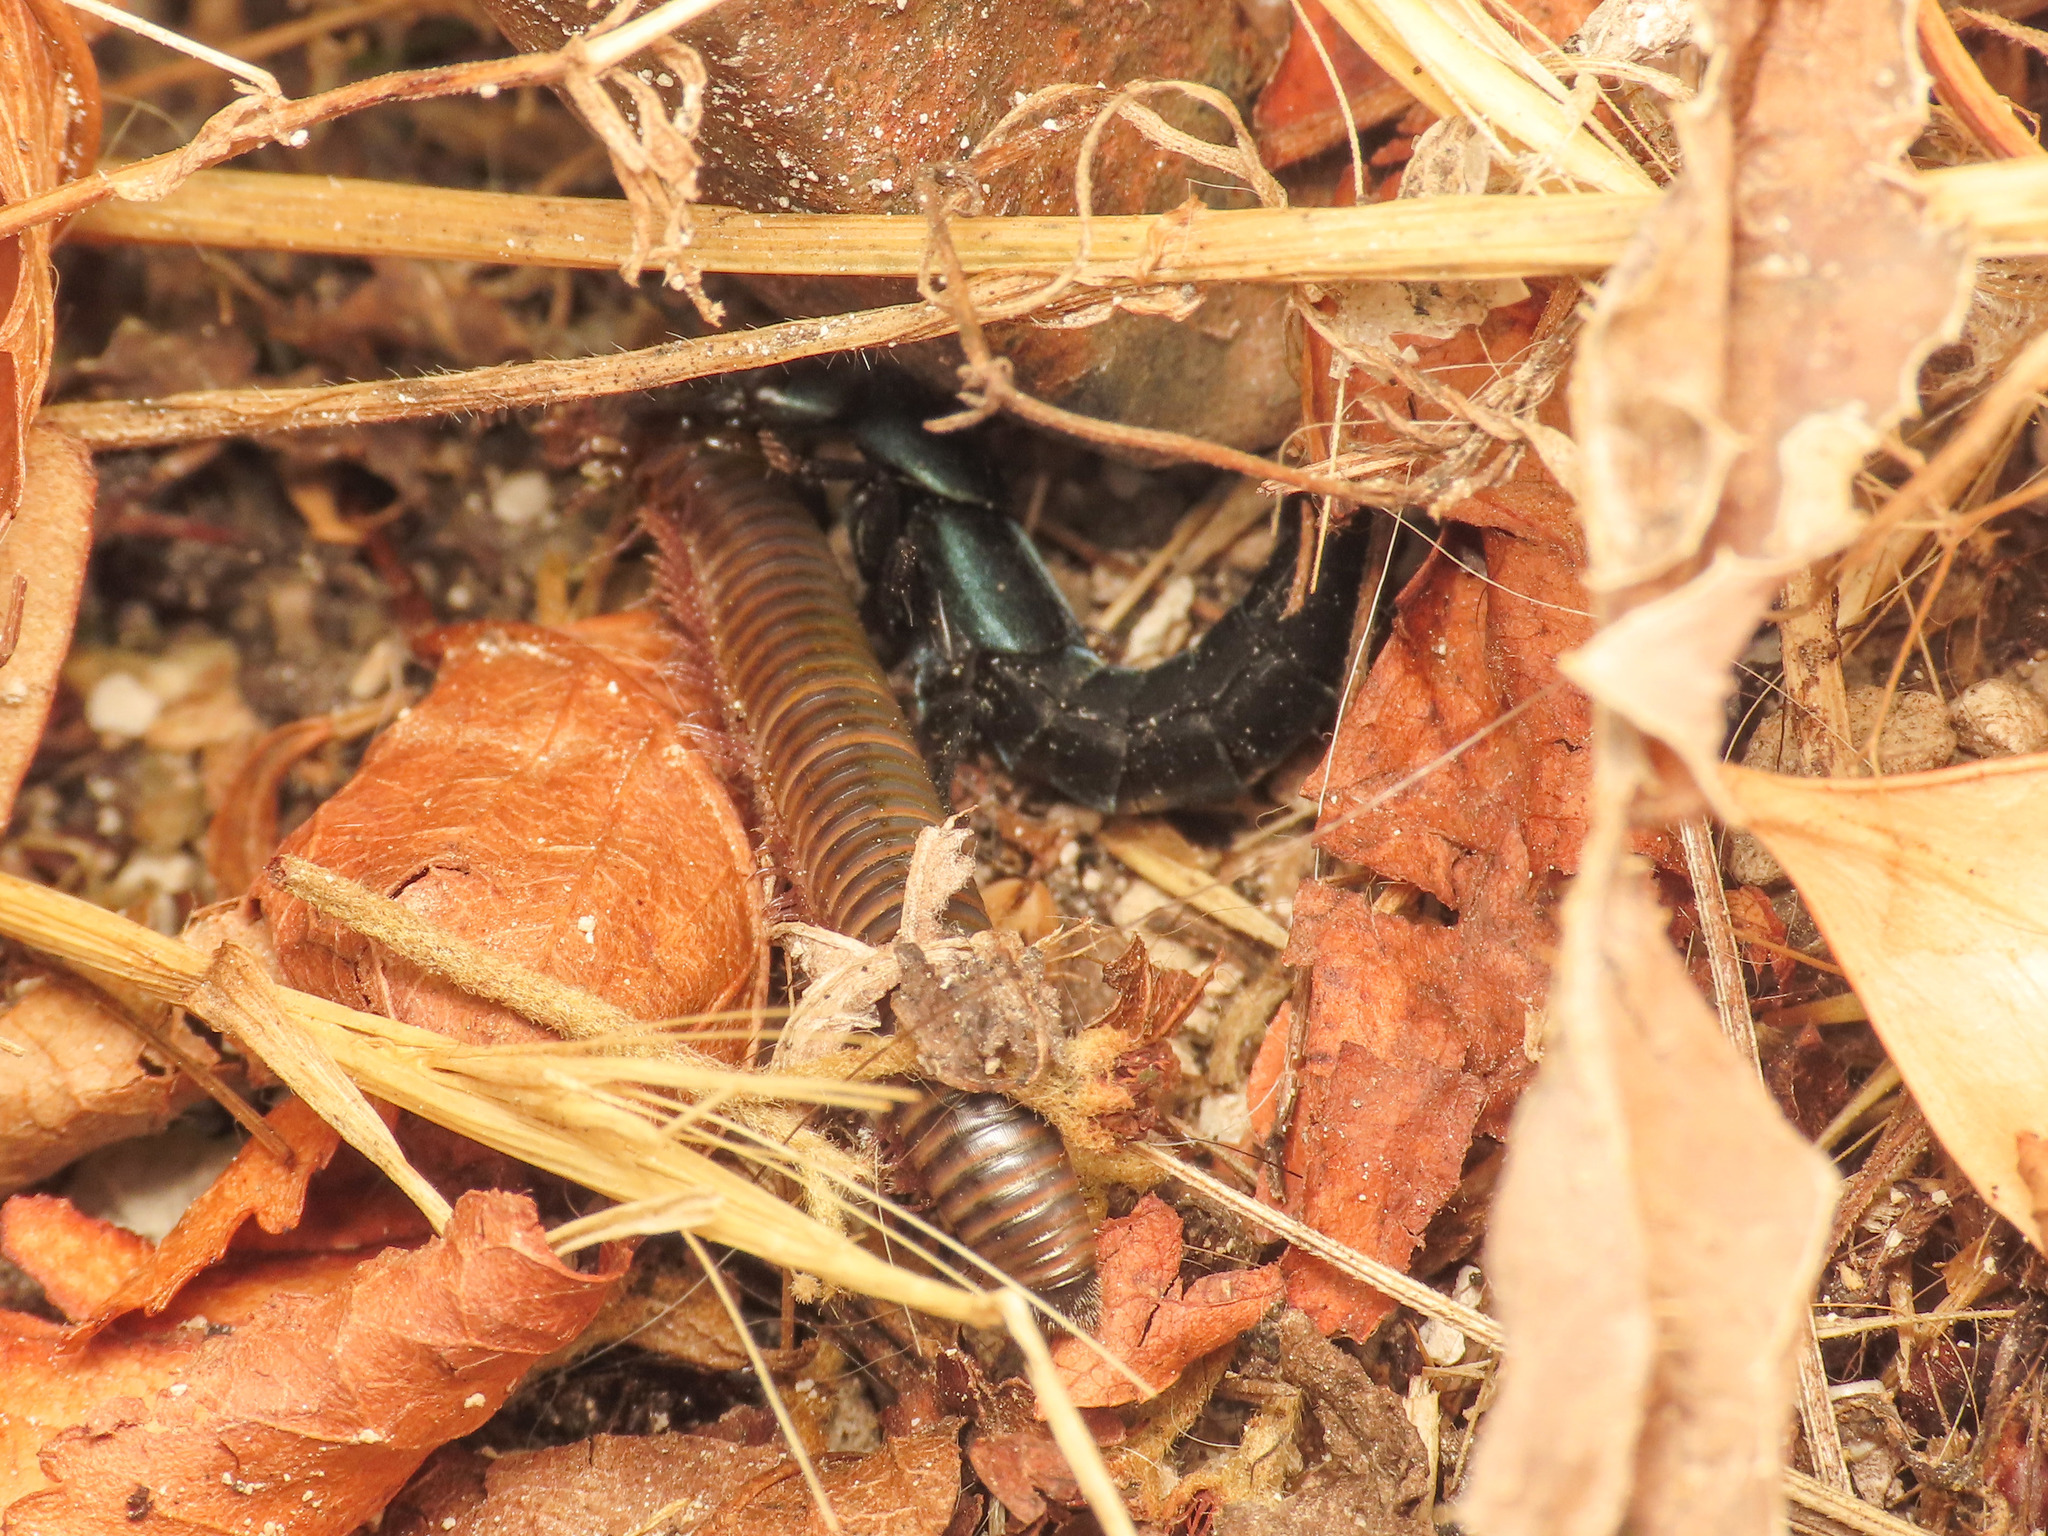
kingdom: Animalia
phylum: Arthropoda
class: Insecta
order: Coleoptera
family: Staphylinidae
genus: Ocypus
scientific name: Ocypus ophthalmicus
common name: Blue rove-beetle
